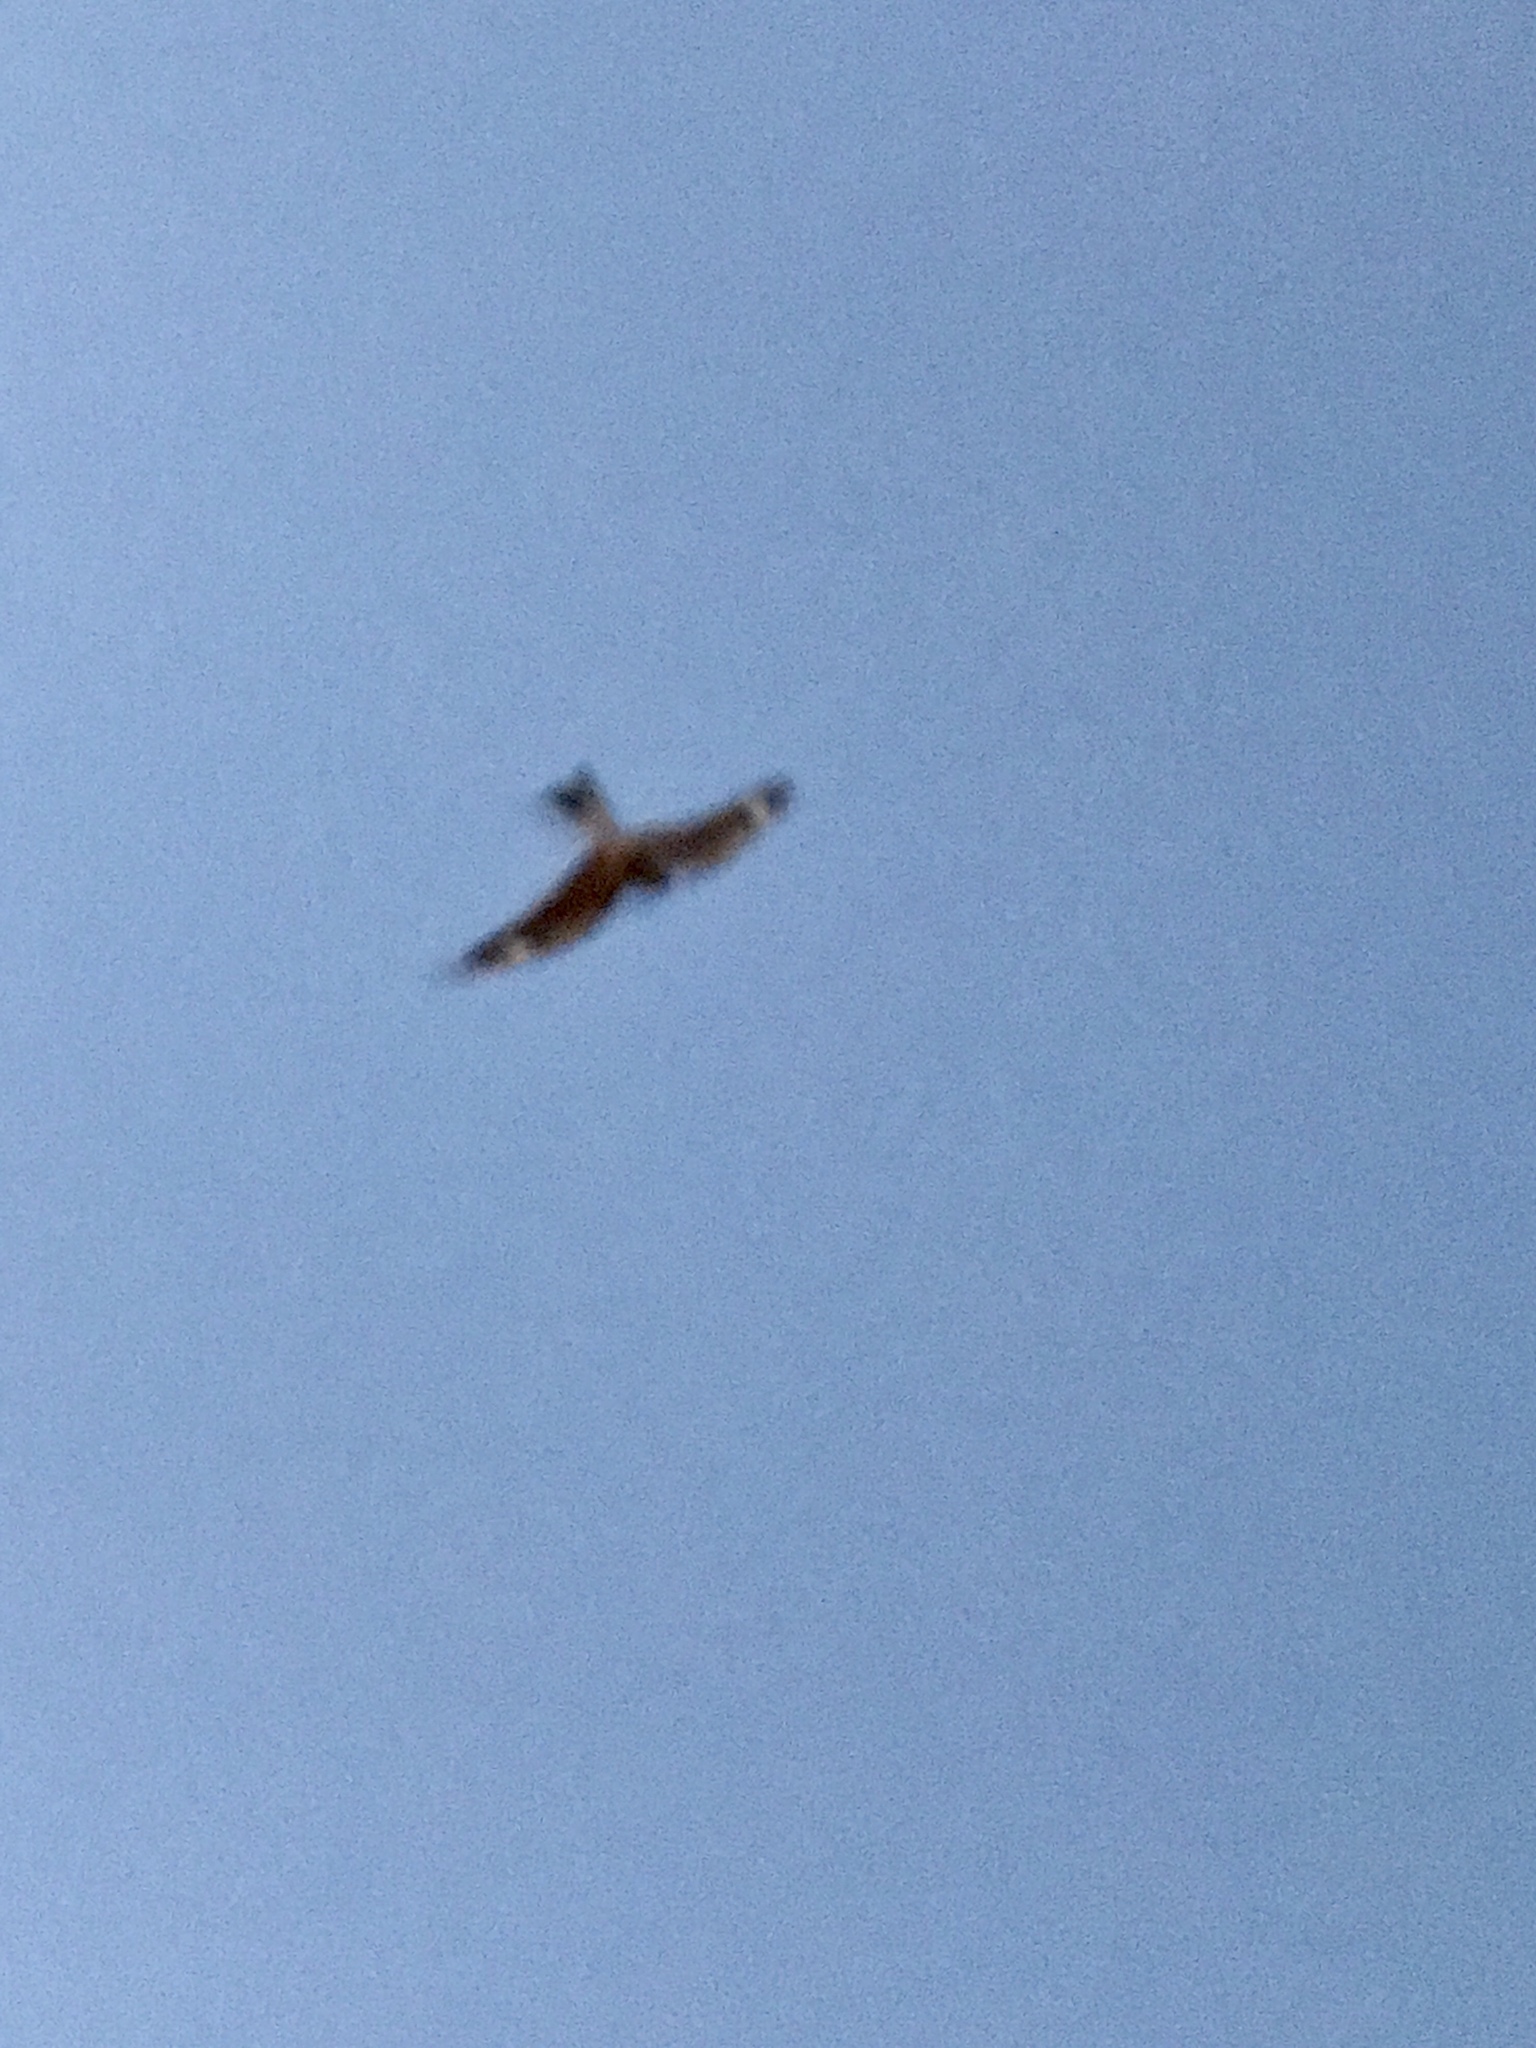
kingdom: Animalia
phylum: Chordata
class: Aves
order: Caprimulgiformes
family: Caprimulgidae
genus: Chordeiles
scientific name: Chordeiles acutipennis
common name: Lesser nighthawk
